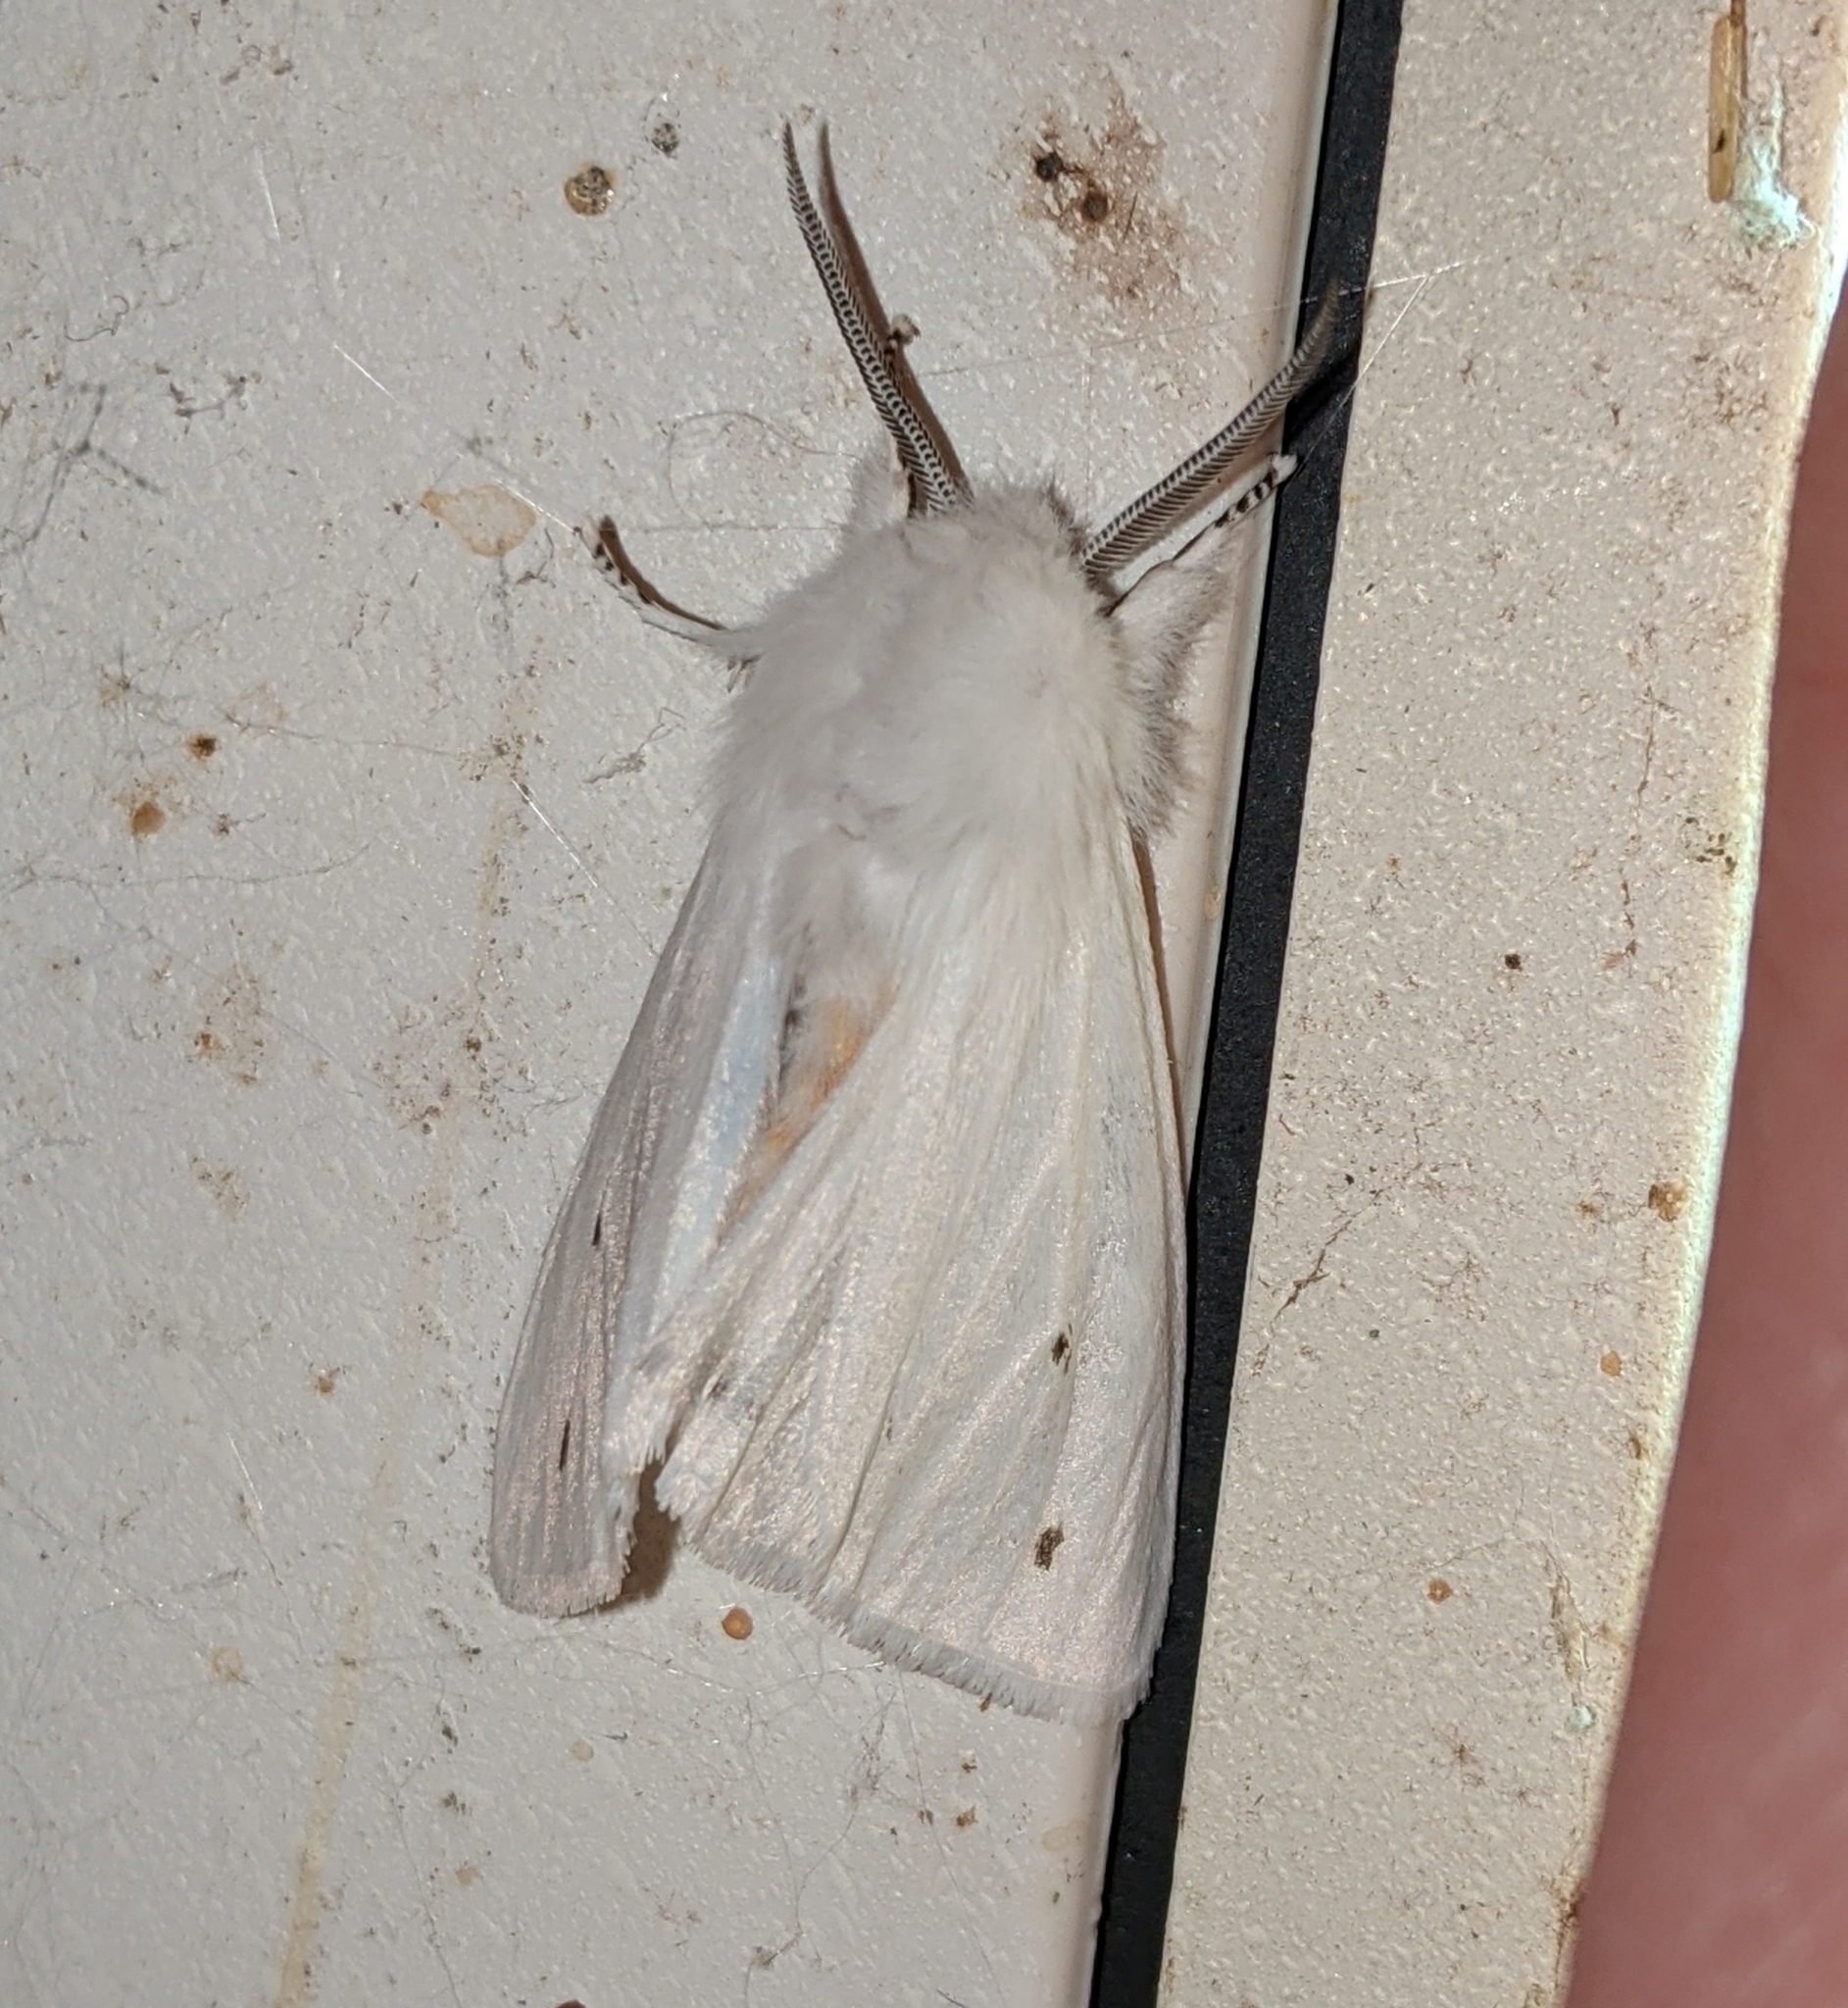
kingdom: Animalia
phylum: Arthropoda
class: Insecta
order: Lepidoptera
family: Erebidae
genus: Spilosoma
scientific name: Spilosoma virginica
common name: Virginia tiger moth
